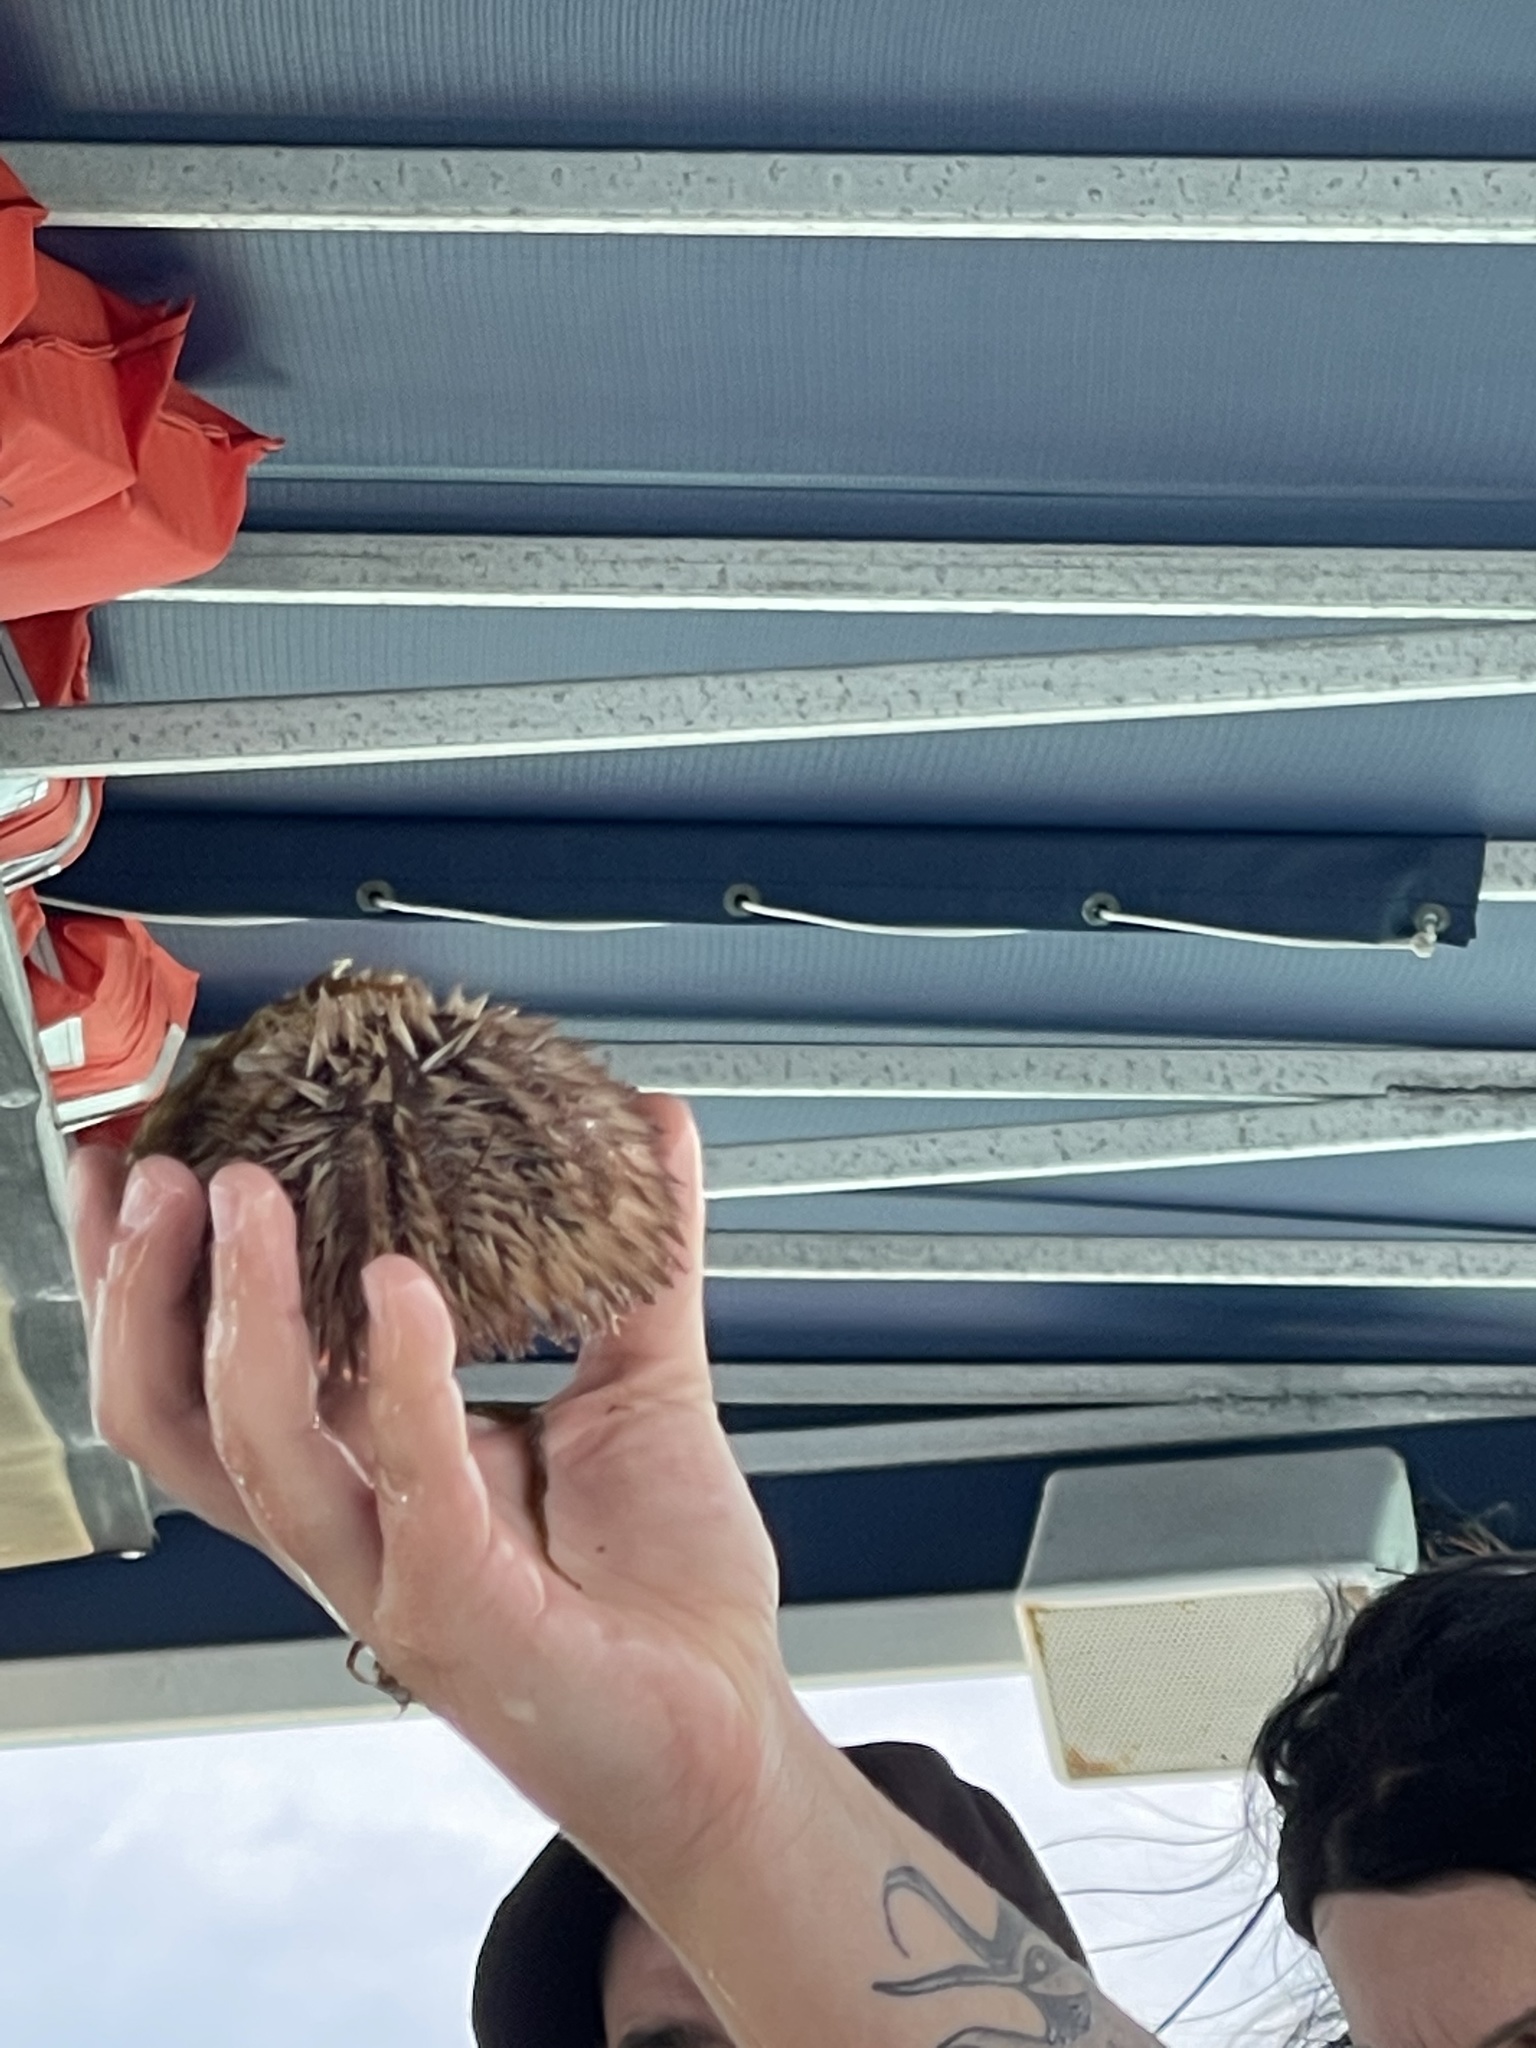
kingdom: Animalia
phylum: Echinodermata
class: Echinoidea
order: Camarodonta
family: Toxopneustidae
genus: Lytechinus
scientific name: Lytechinus variegatus
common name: Variegated urchin
